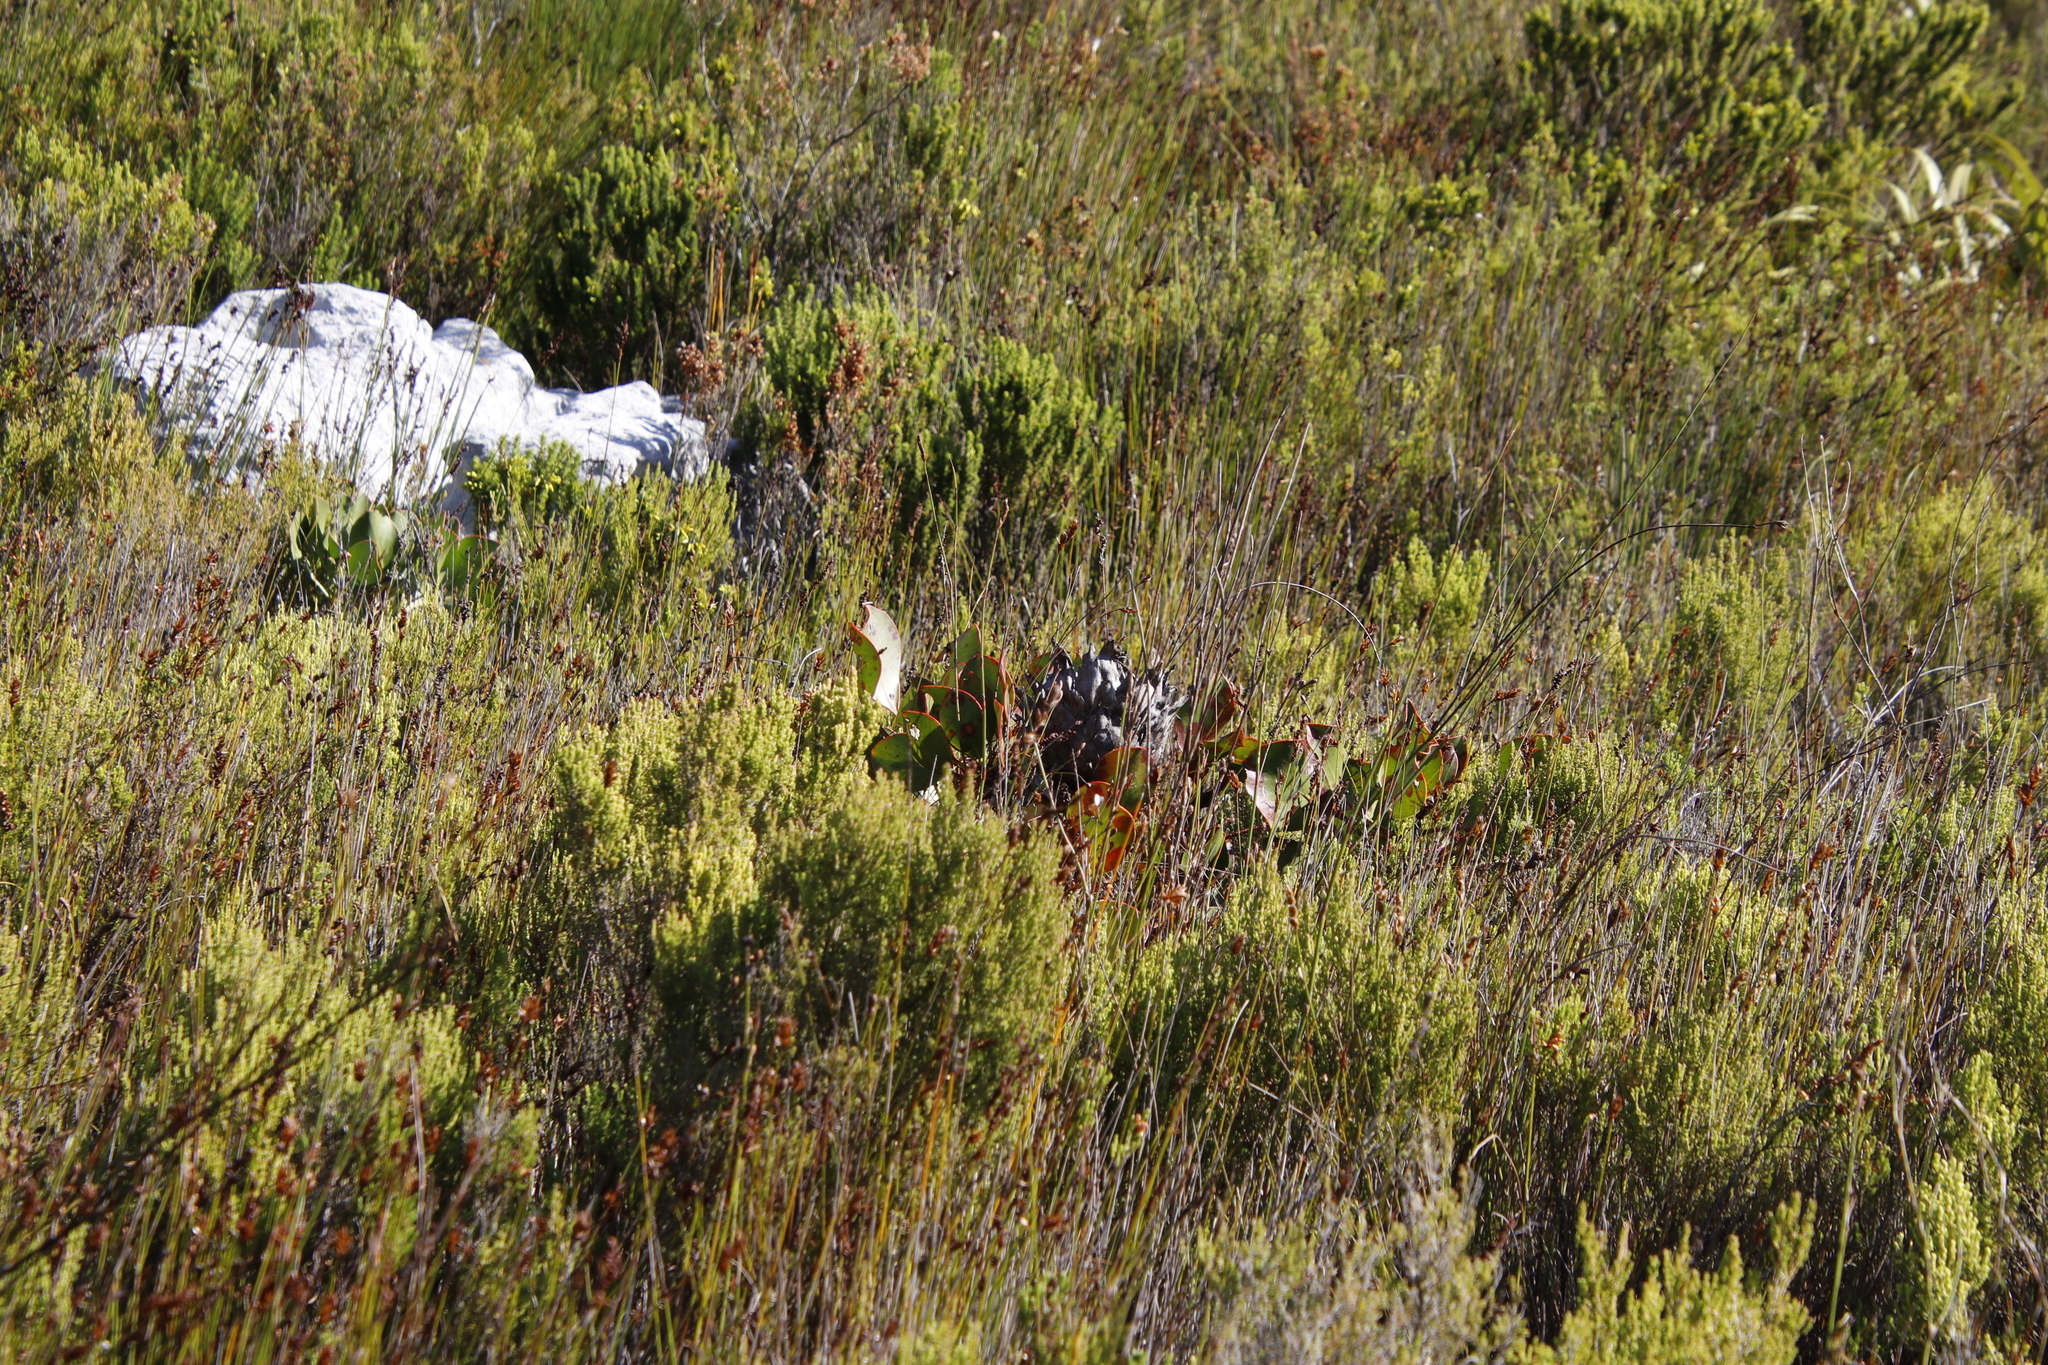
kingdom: Plantae
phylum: Tracheophyta
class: Magnoliopsida
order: Proteales
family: Proteaceae
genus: Protea
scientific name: Protea cynaroides
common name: King protea
